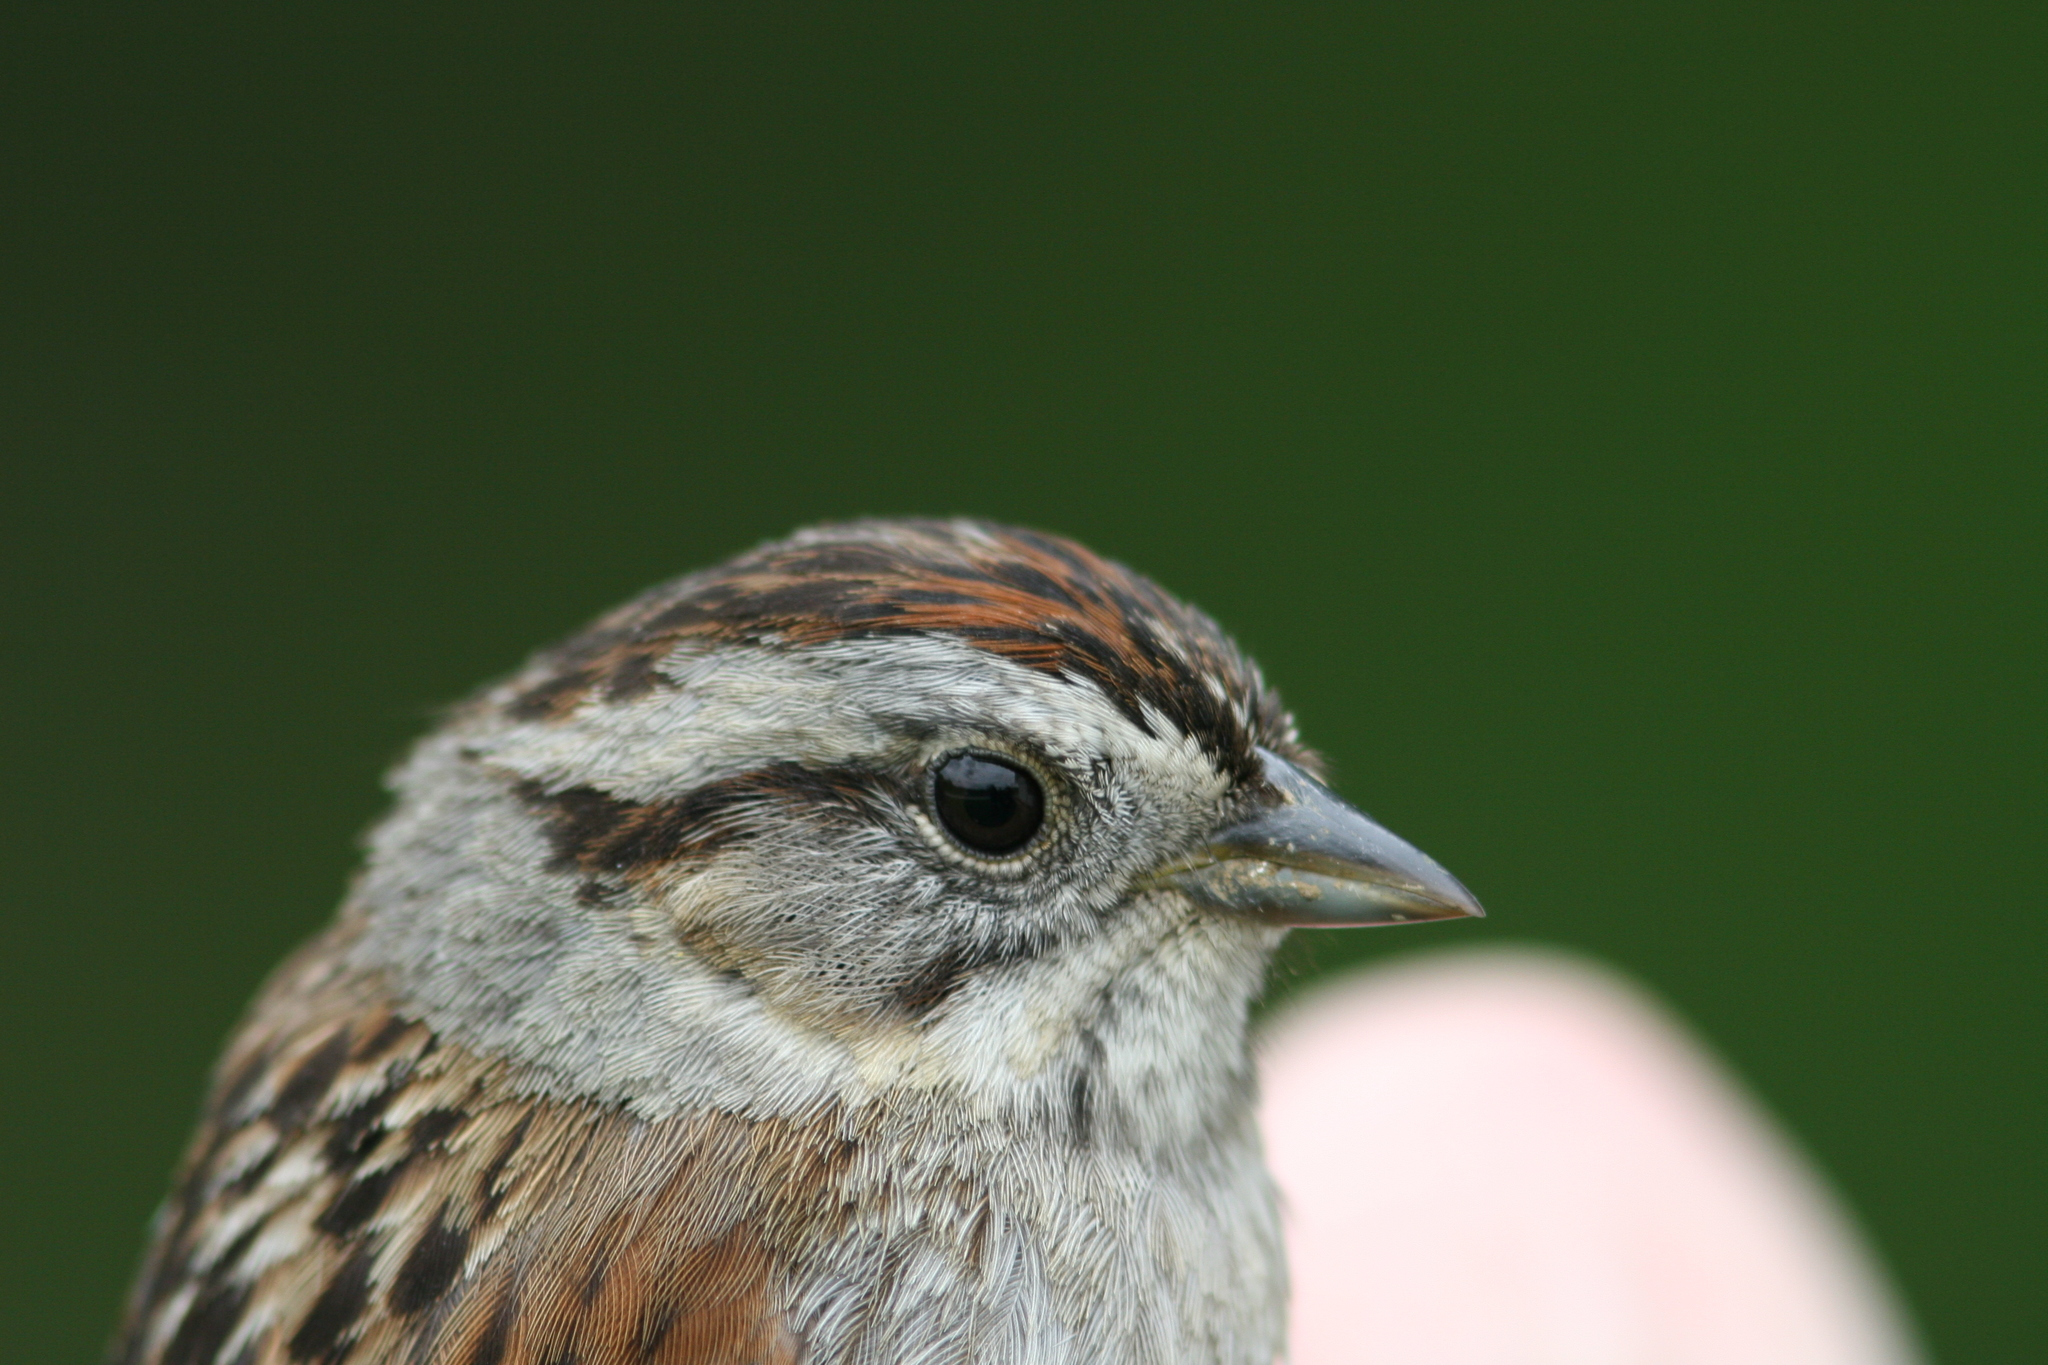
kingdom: Animalia
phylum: Chordata
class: Aves
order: Passeriformes
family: Passerellidae
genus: Melospiza
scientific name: Melospiza georgiana
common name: Swamp sparrow
